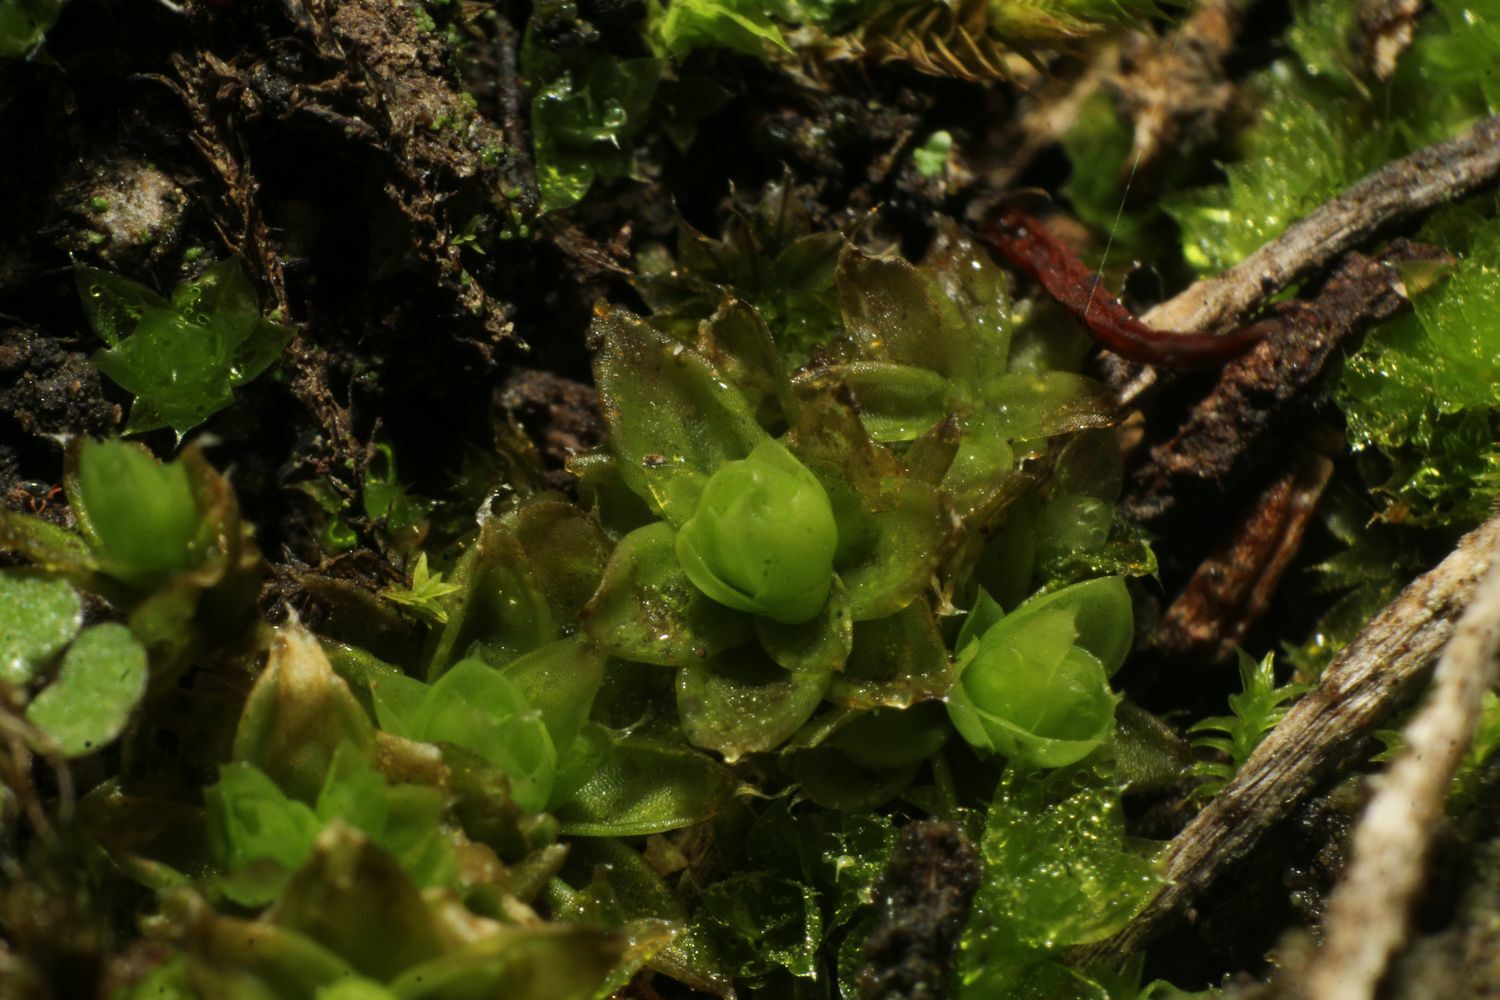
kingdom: Plantae
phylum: Bryophyta
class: Bryopsida
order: Pottiales
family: Pleurophascaceae
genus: Pleurophascum
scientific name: Pleurophascum occidentale
